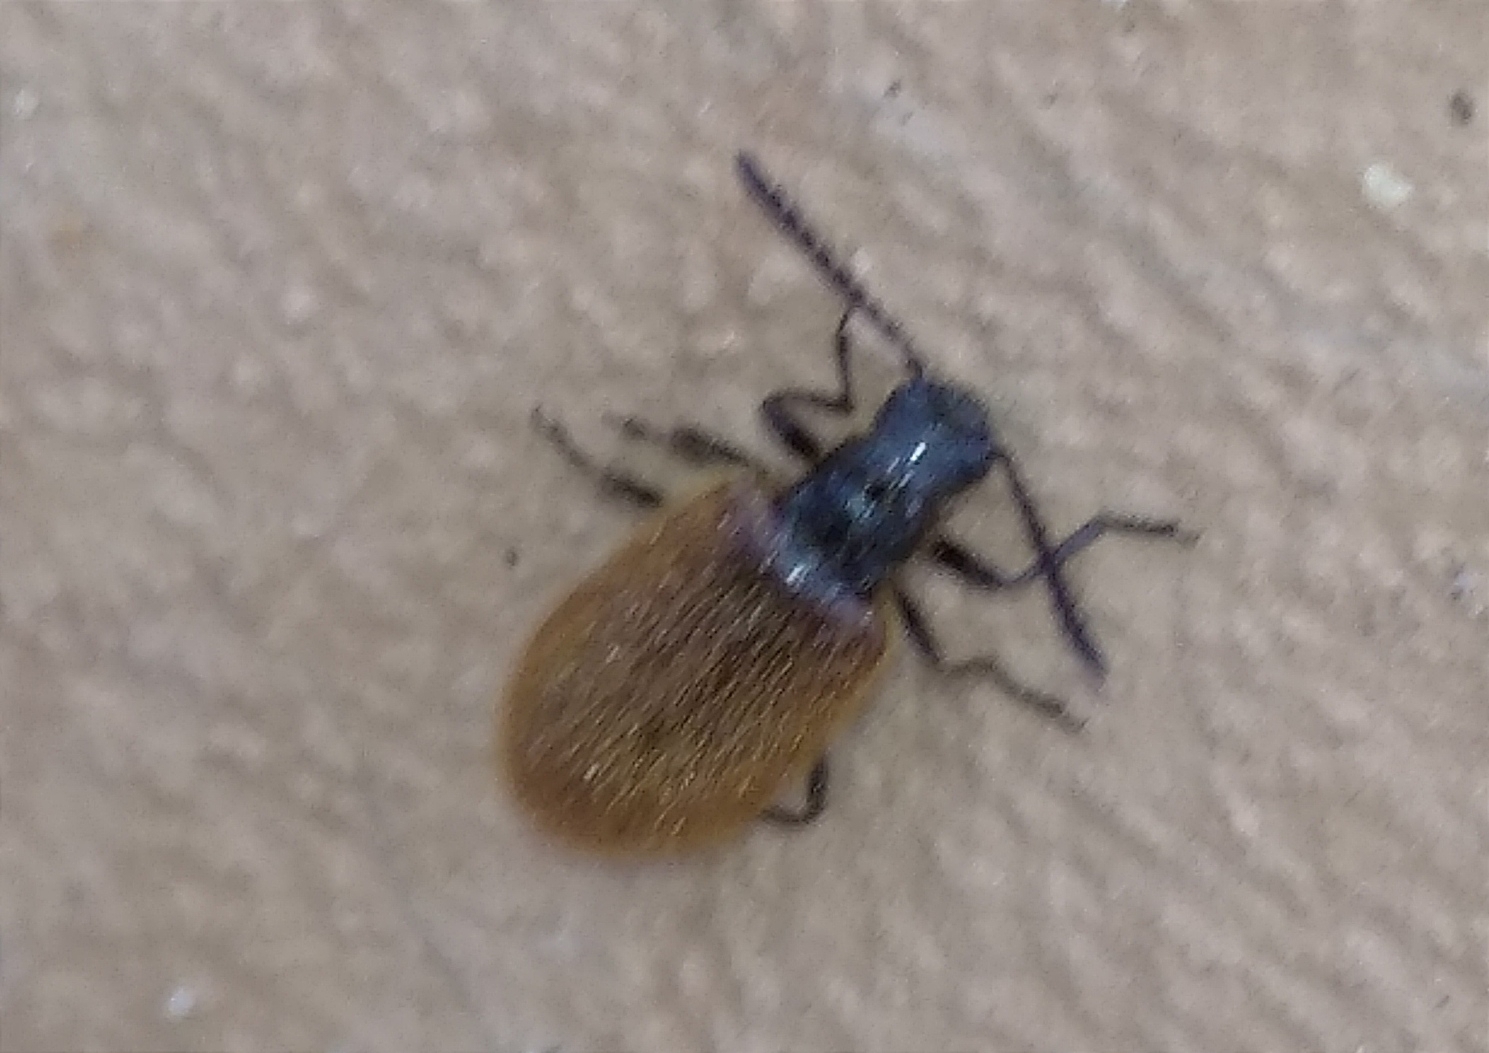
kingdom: Animalia
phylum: Arthropoda
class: Insecta
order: Coleoptera
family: Tenebrionidae
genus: Lagria
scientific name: Lagria hirta
